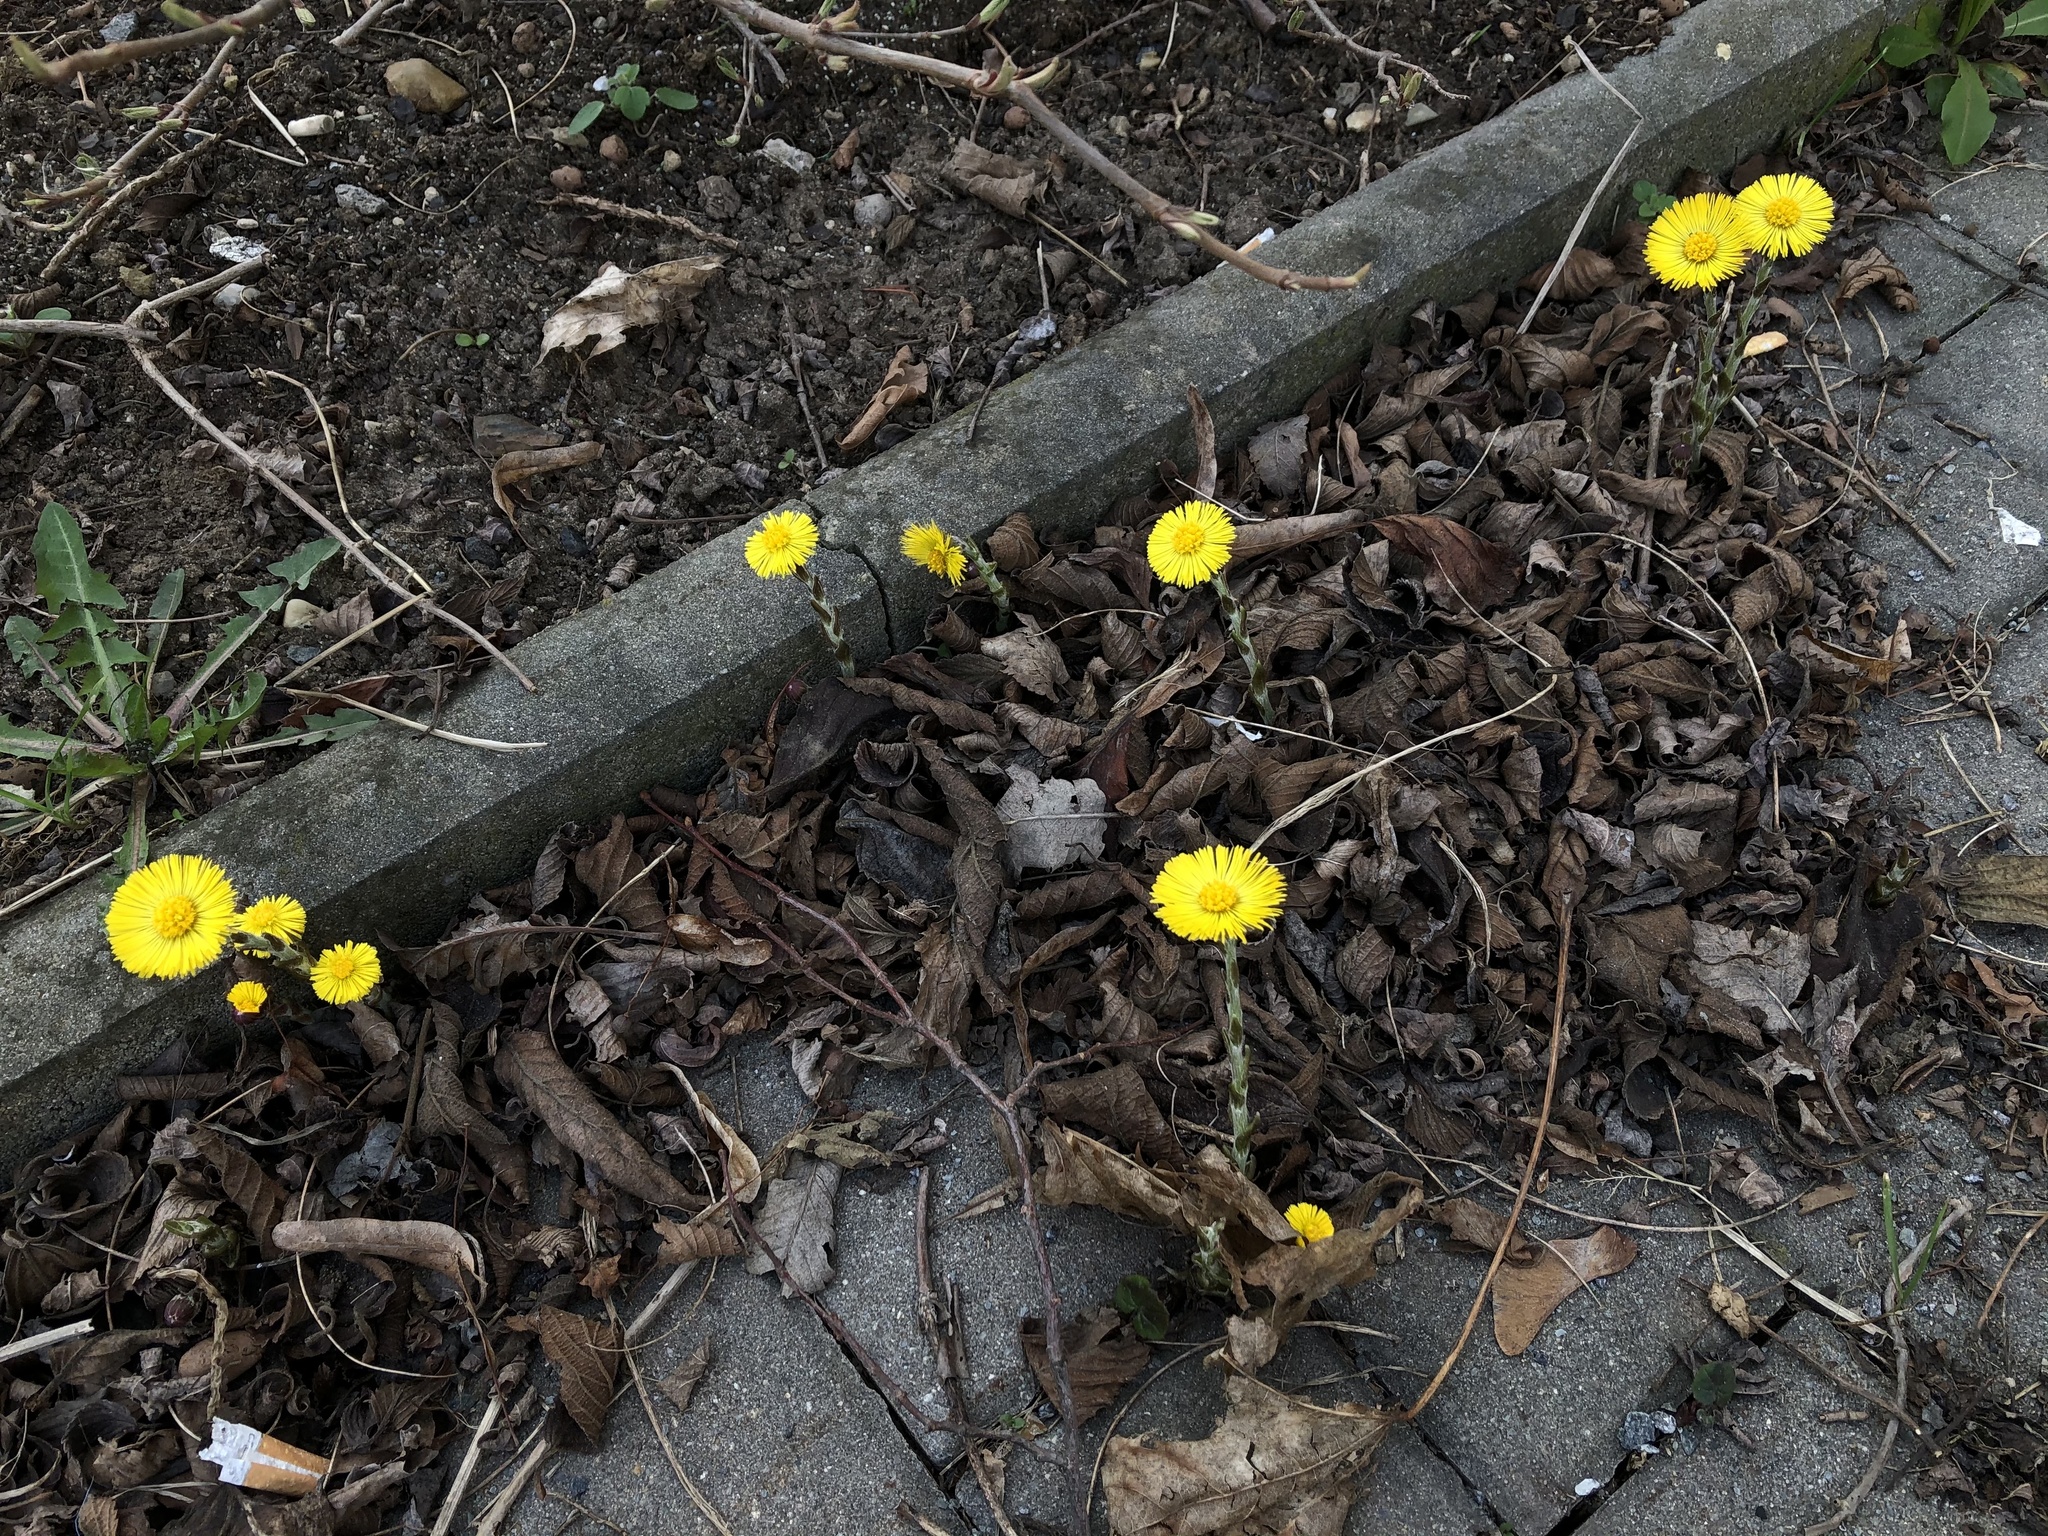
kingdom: Plantae
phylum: Tracheophyta
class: Magnoliopsida
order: Asterales
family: Asteraceae
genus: Tussilago
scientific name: Tussilago farfara
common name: Coltsfoot
